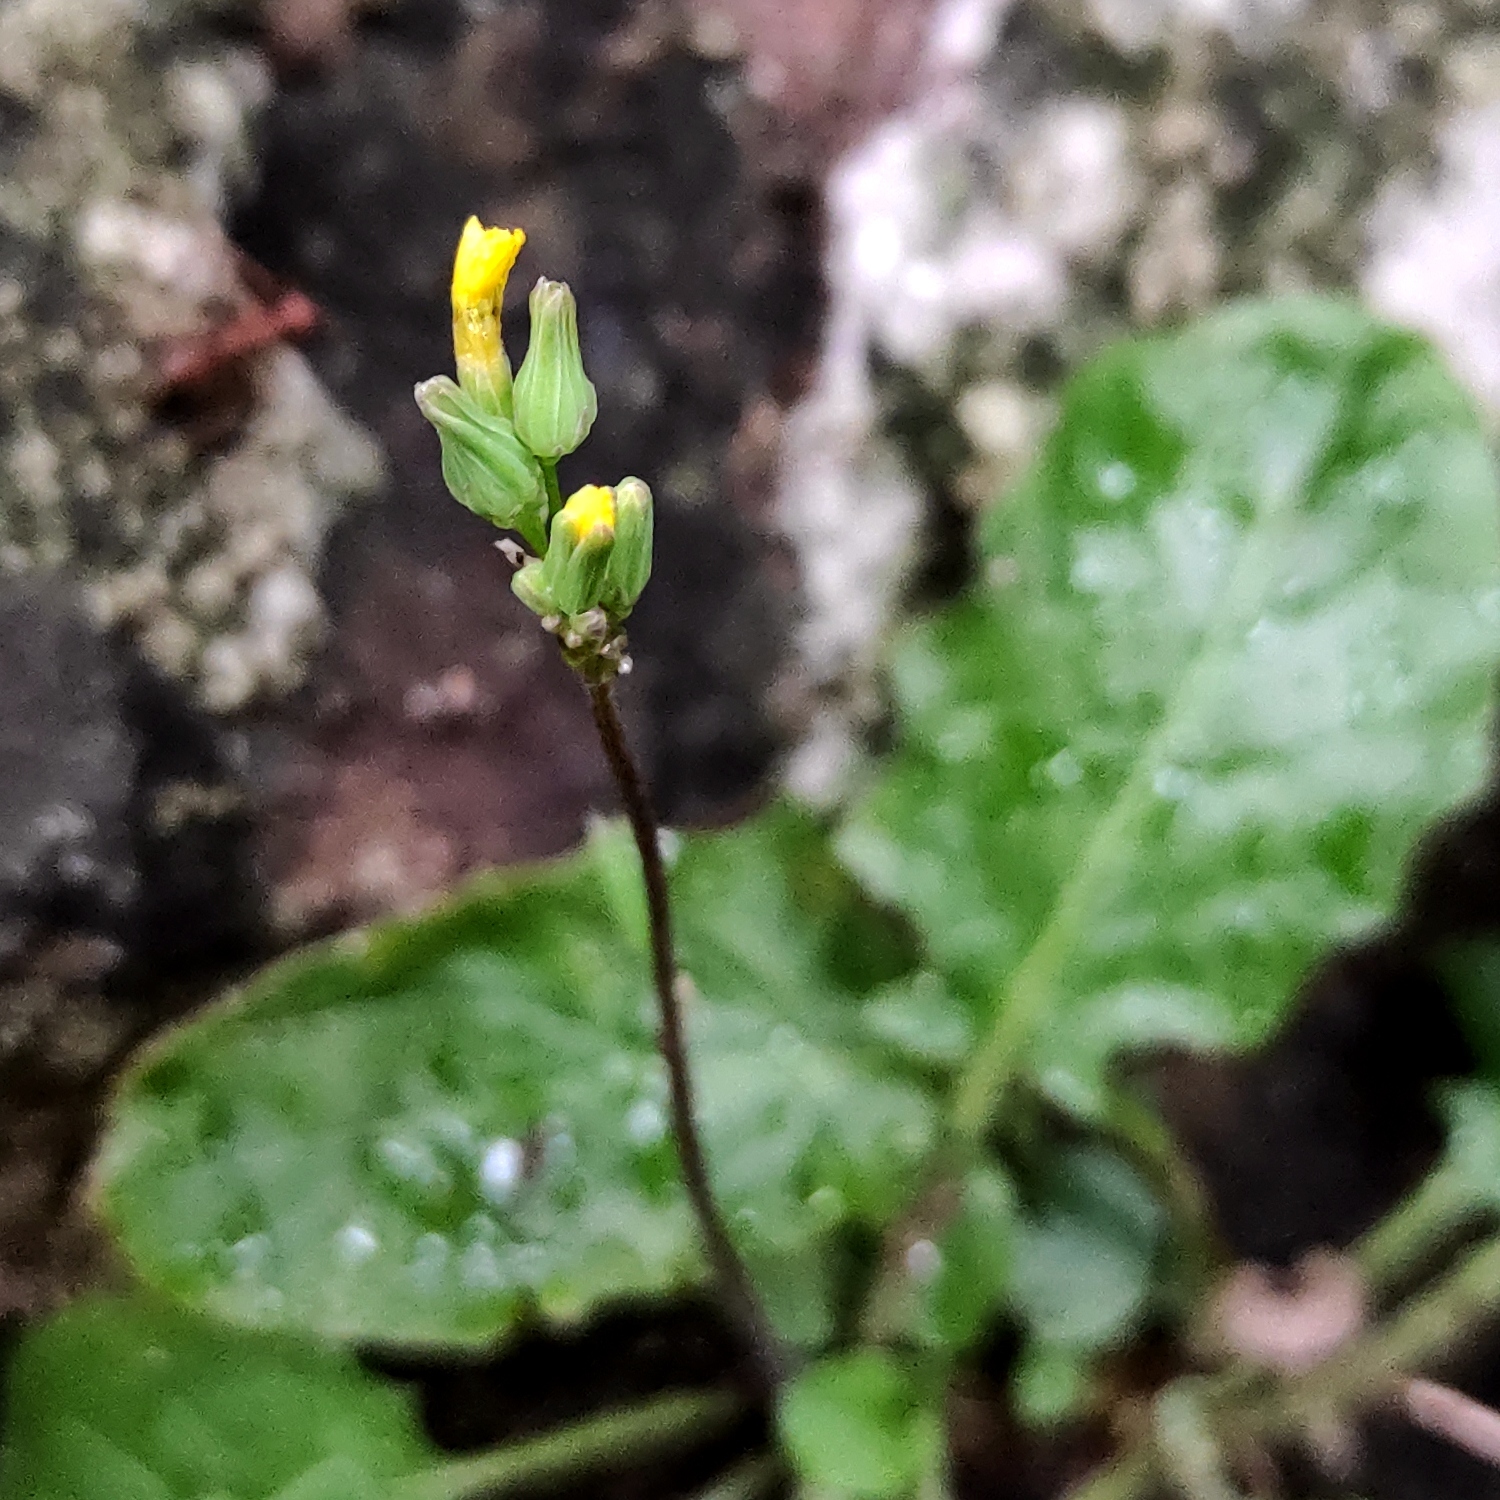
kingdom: Plantae
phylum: Tracheophyta
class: Magnoliopsida
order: Asterales
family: Asteraceae
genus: Youngia
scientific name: Youngia japonica
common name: Oriental false hawksbeard
